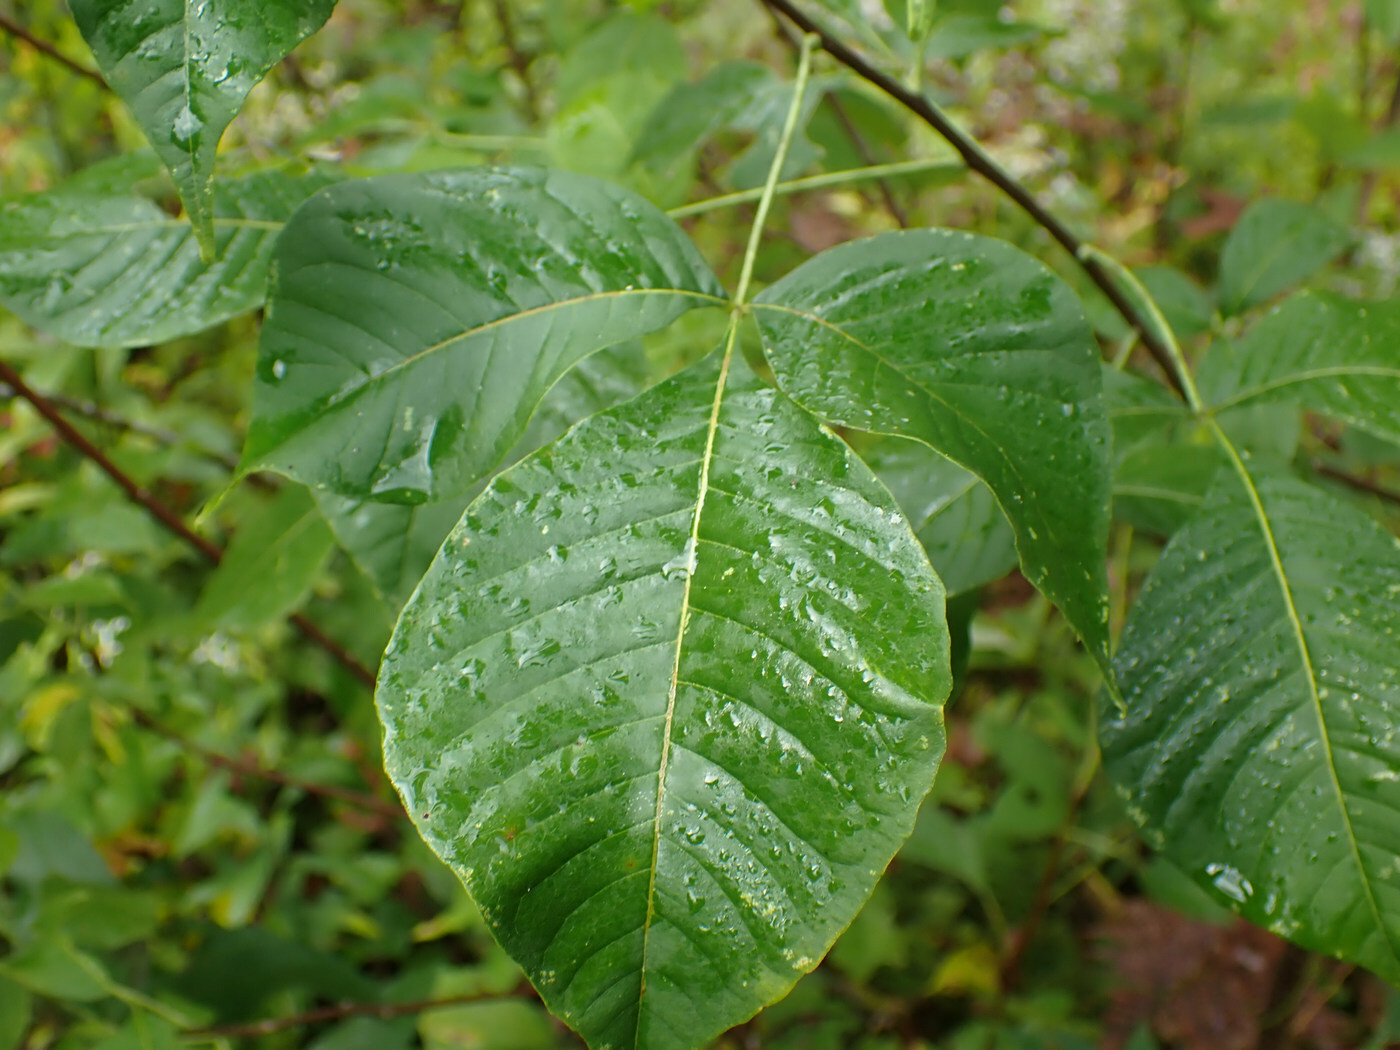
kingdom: Plantae
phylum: Tracheophyta
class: Magnoliopsida
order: Sapindales
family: Rutaceae
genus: Ptelea
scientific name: Ptelea trifoliata
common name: Common hop-tree
